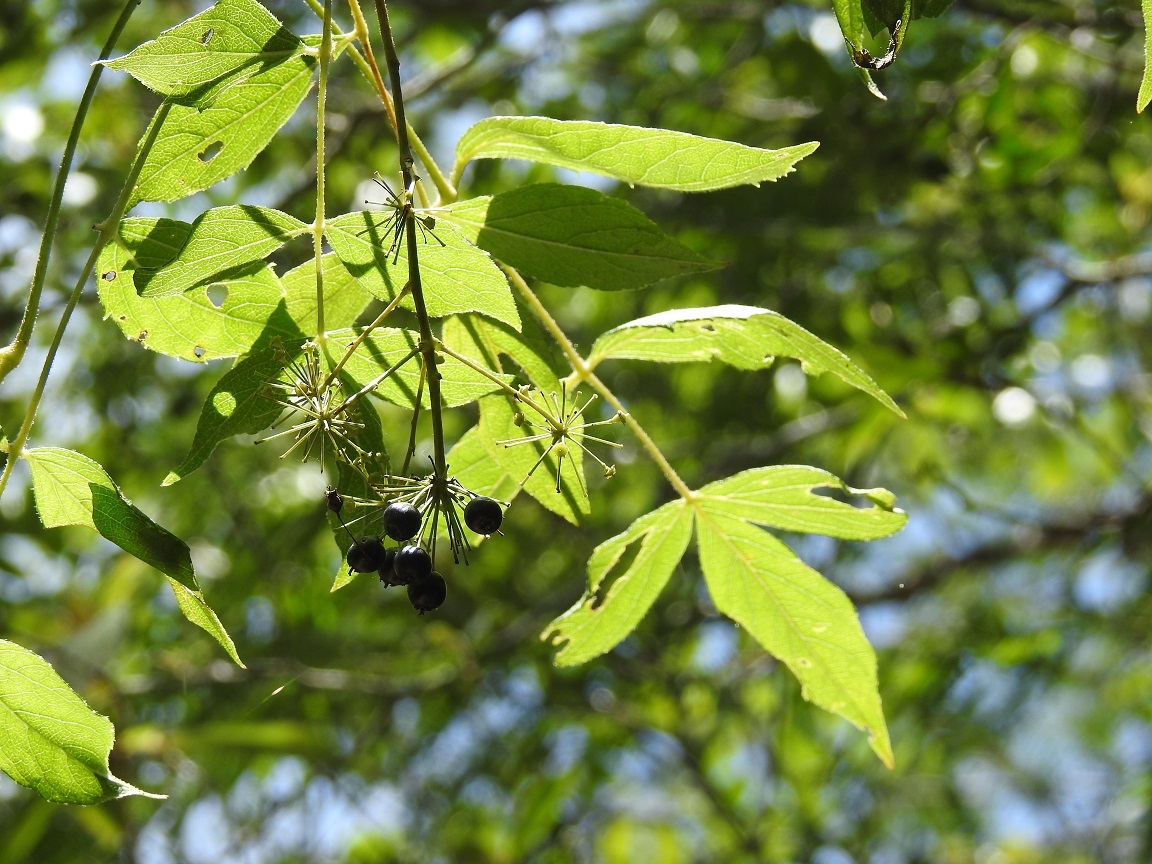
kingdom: Plantae
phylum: Tracheophyta
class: Magnoliopsida
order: Apiales
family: Araliaceae
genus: Aralia
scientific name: Aralia humilis
